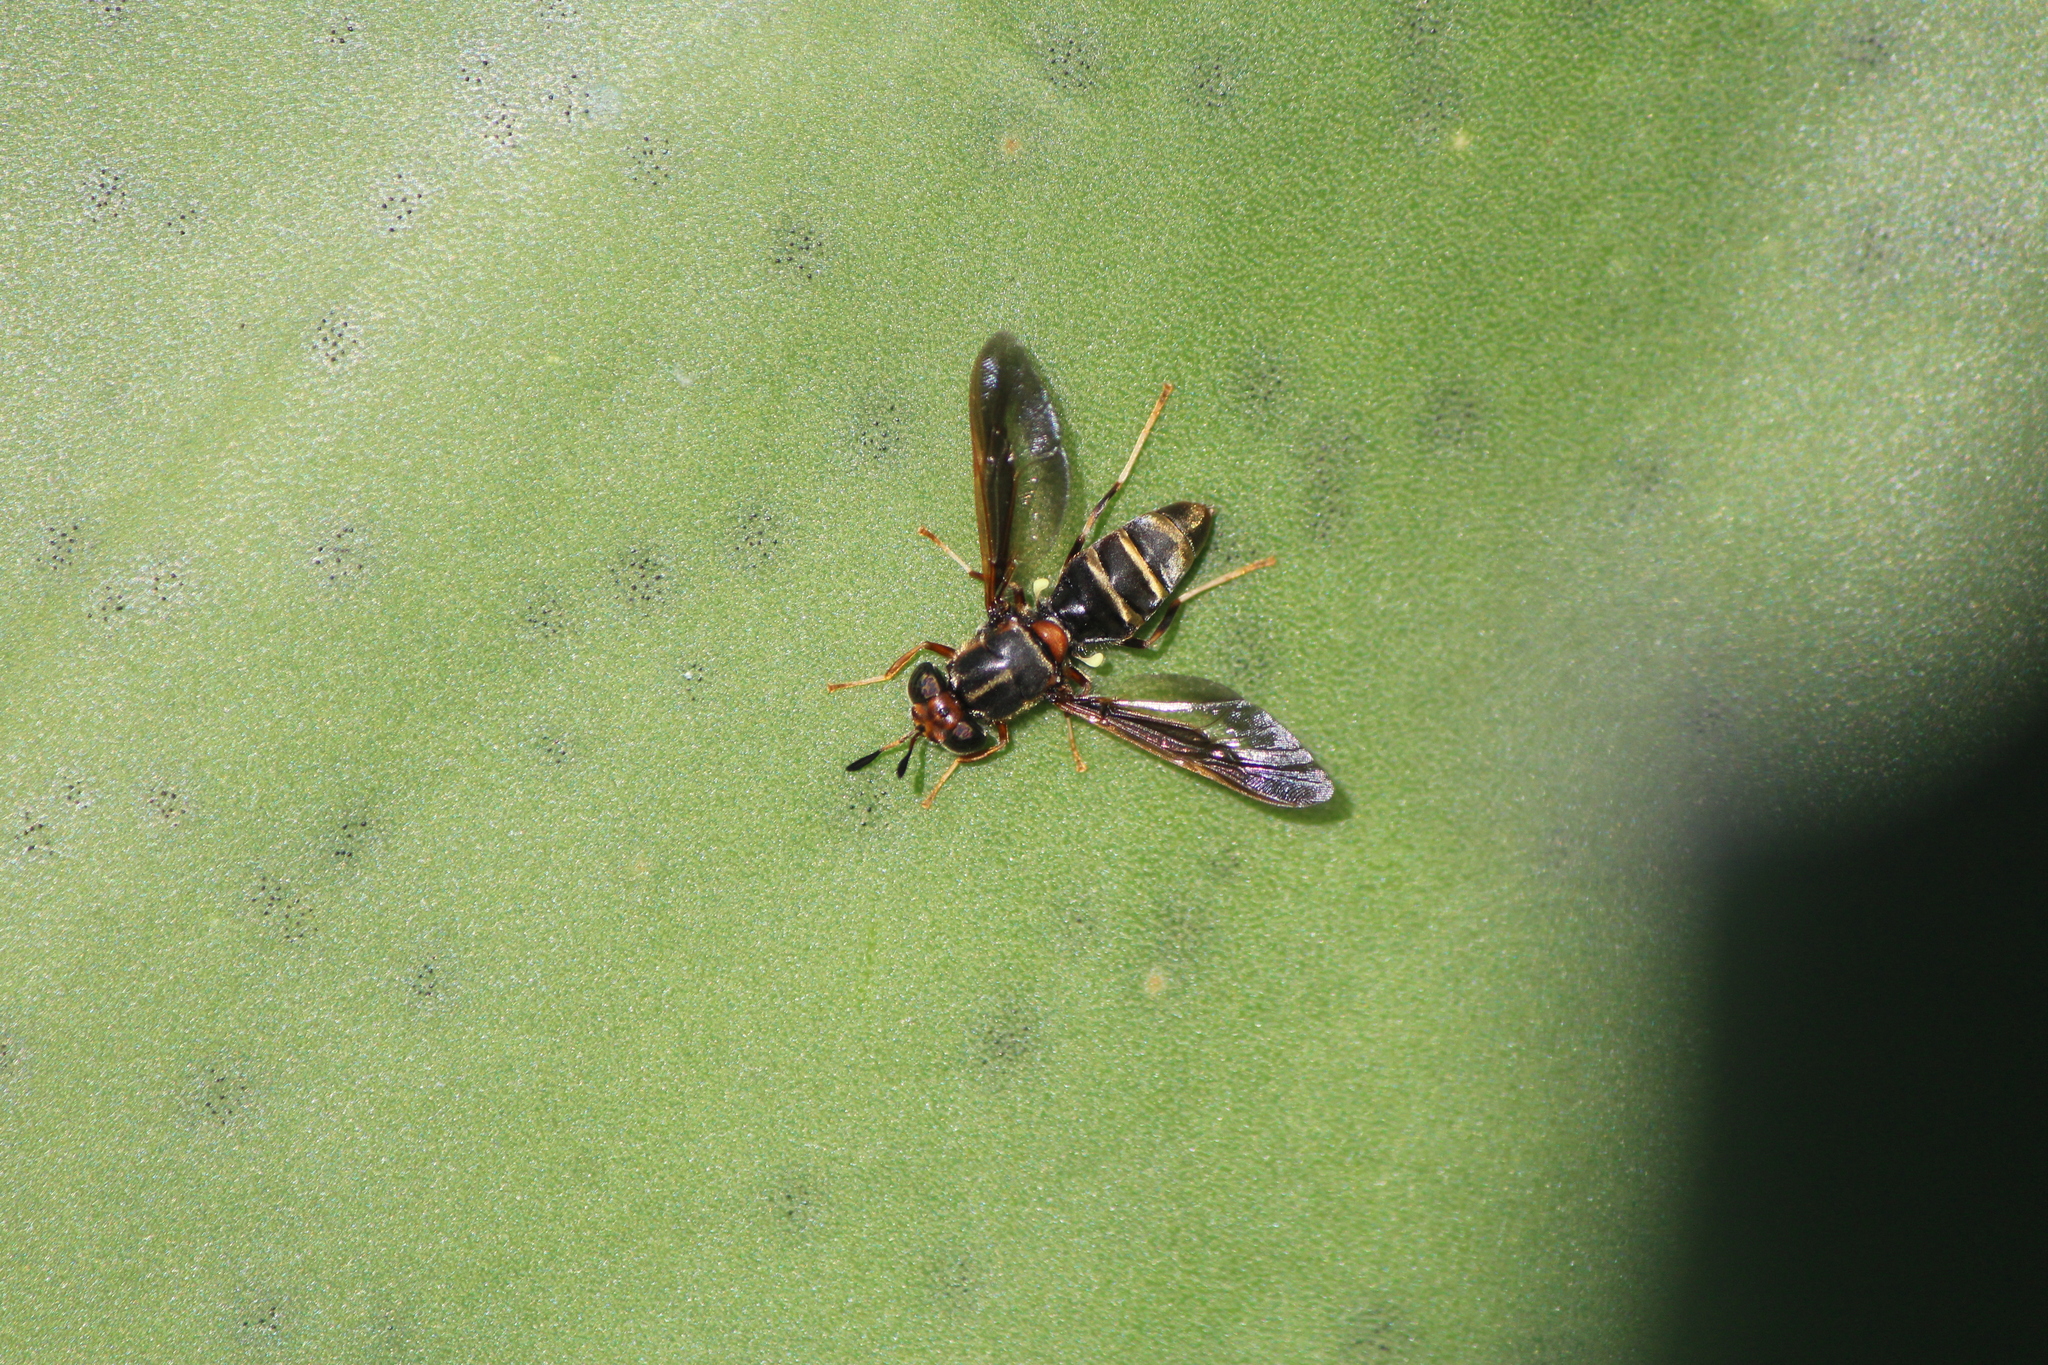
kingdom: Animalia
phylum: Arthropoda
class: Insecta
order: Diptera
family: Stratiomyidae
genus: Hermetia
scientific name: Hermetia comstocki
